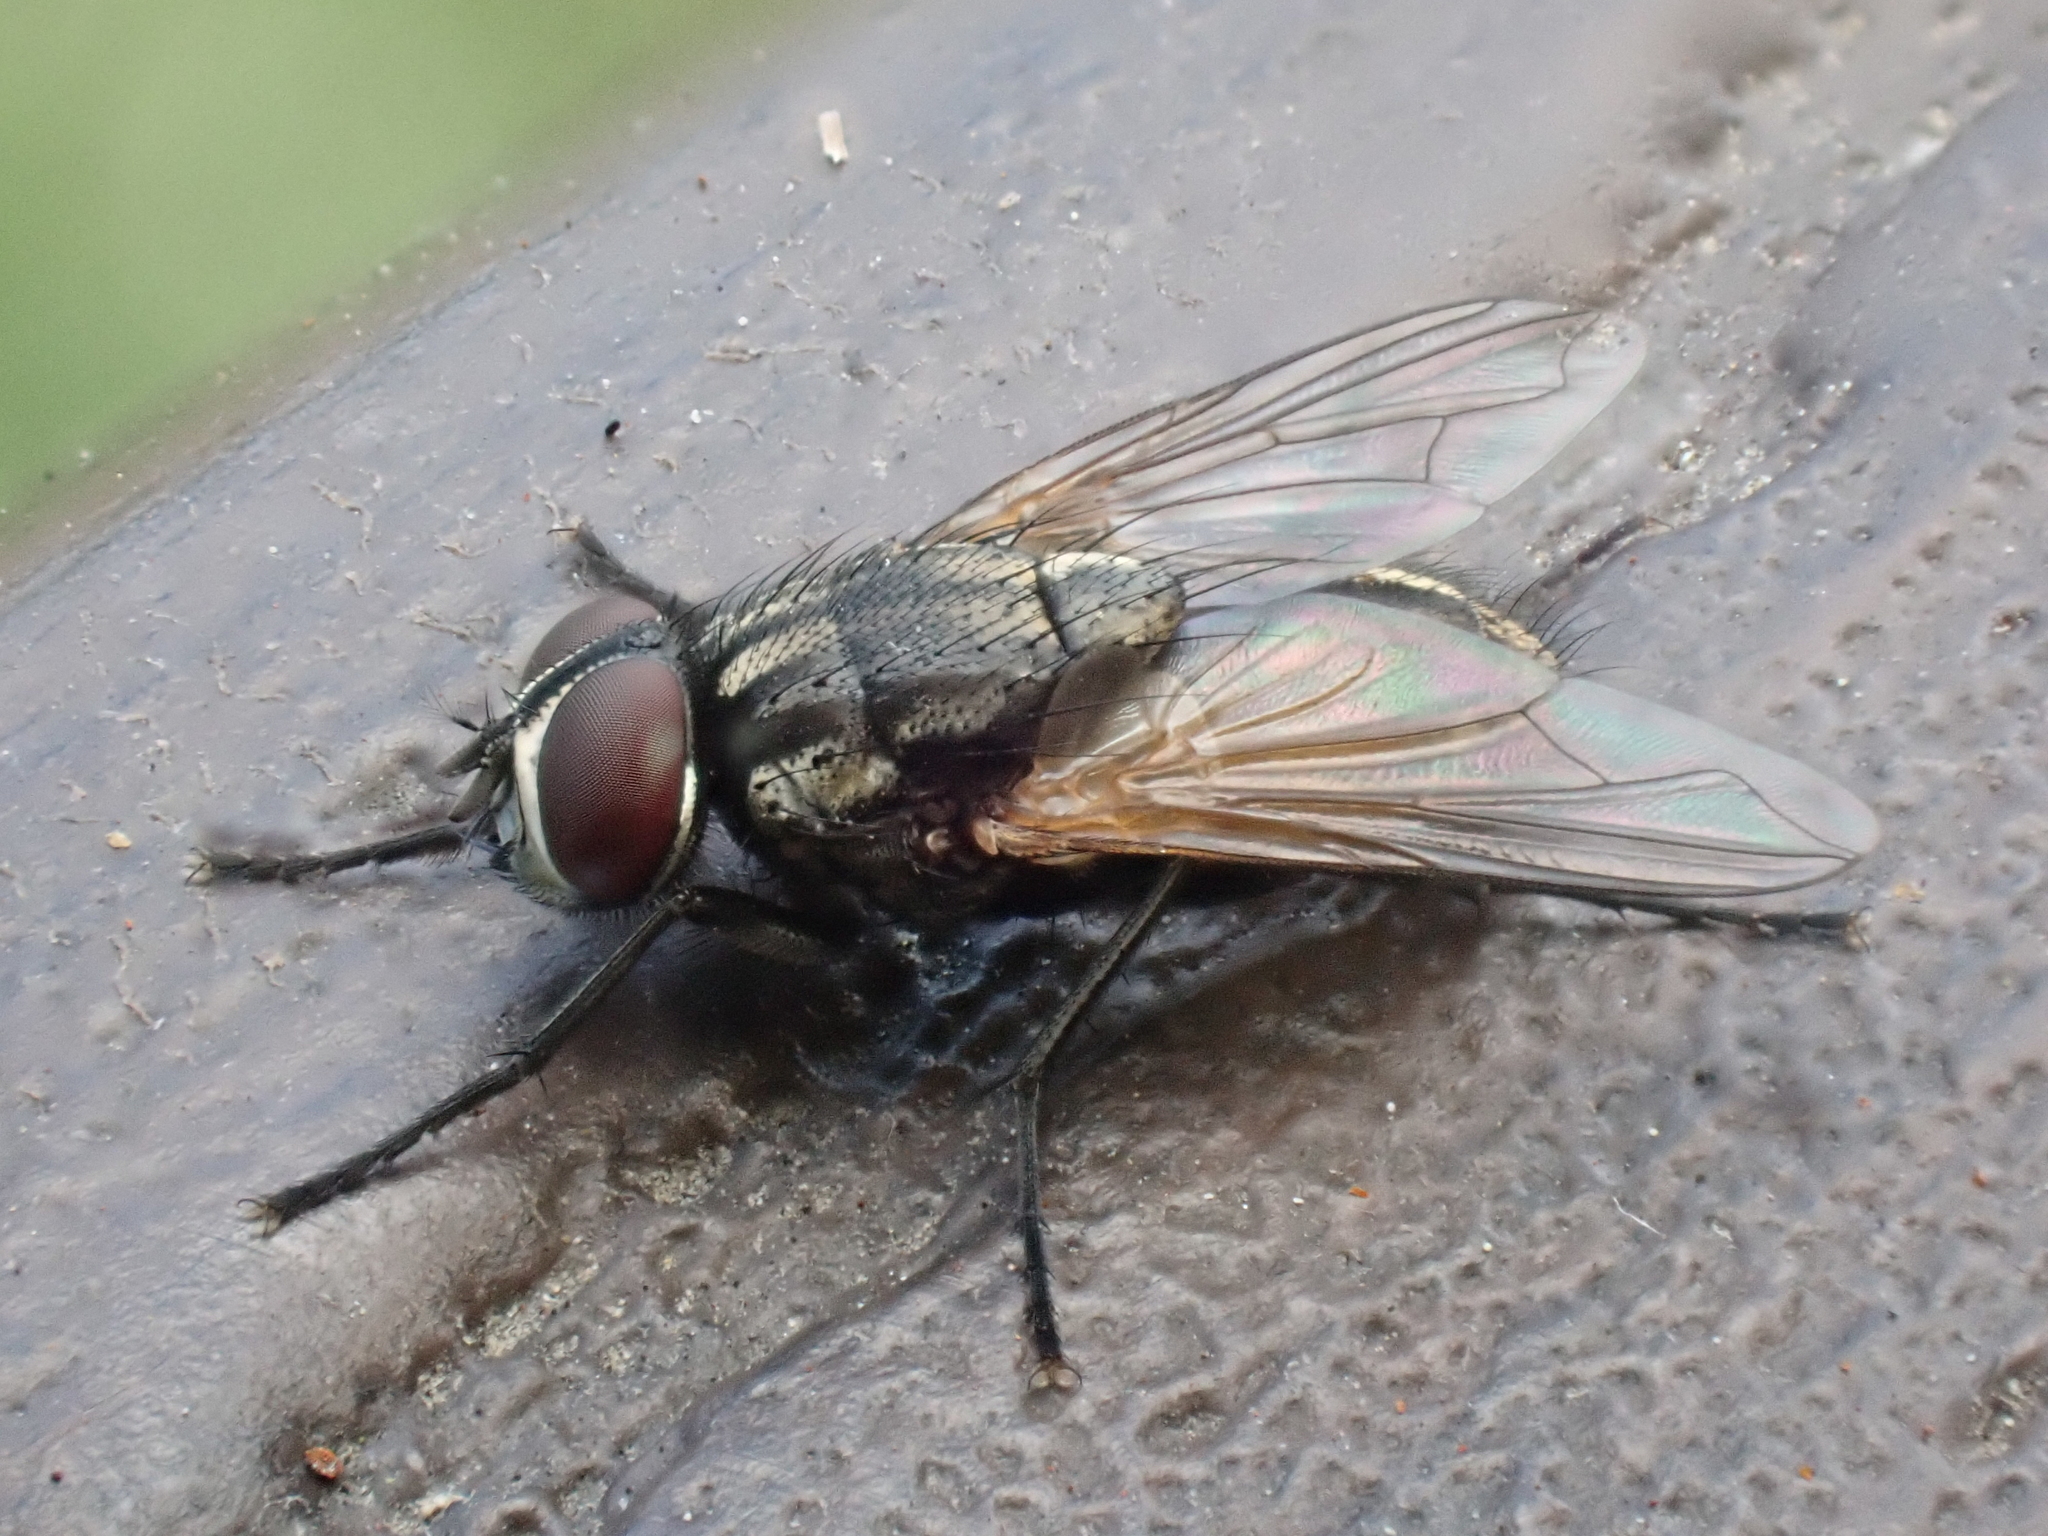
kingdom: Animalia
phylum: Arthropoda
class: Insecta
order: Diptera
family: Muscidae
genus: Musca
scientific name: Musca domestica
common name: House fly
